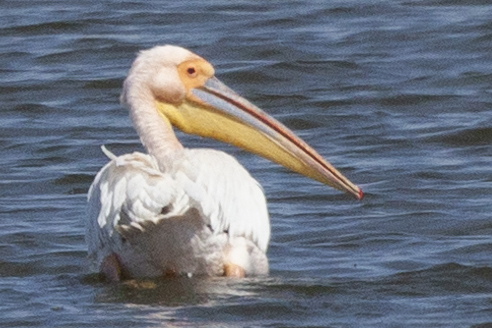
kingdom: Animalia
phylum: Chordata
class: Aves
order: Pelecaniformes
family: Pelecanidae
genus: Pelecanus
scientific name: Pelecanus onocrotalus
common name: Great white pelican
